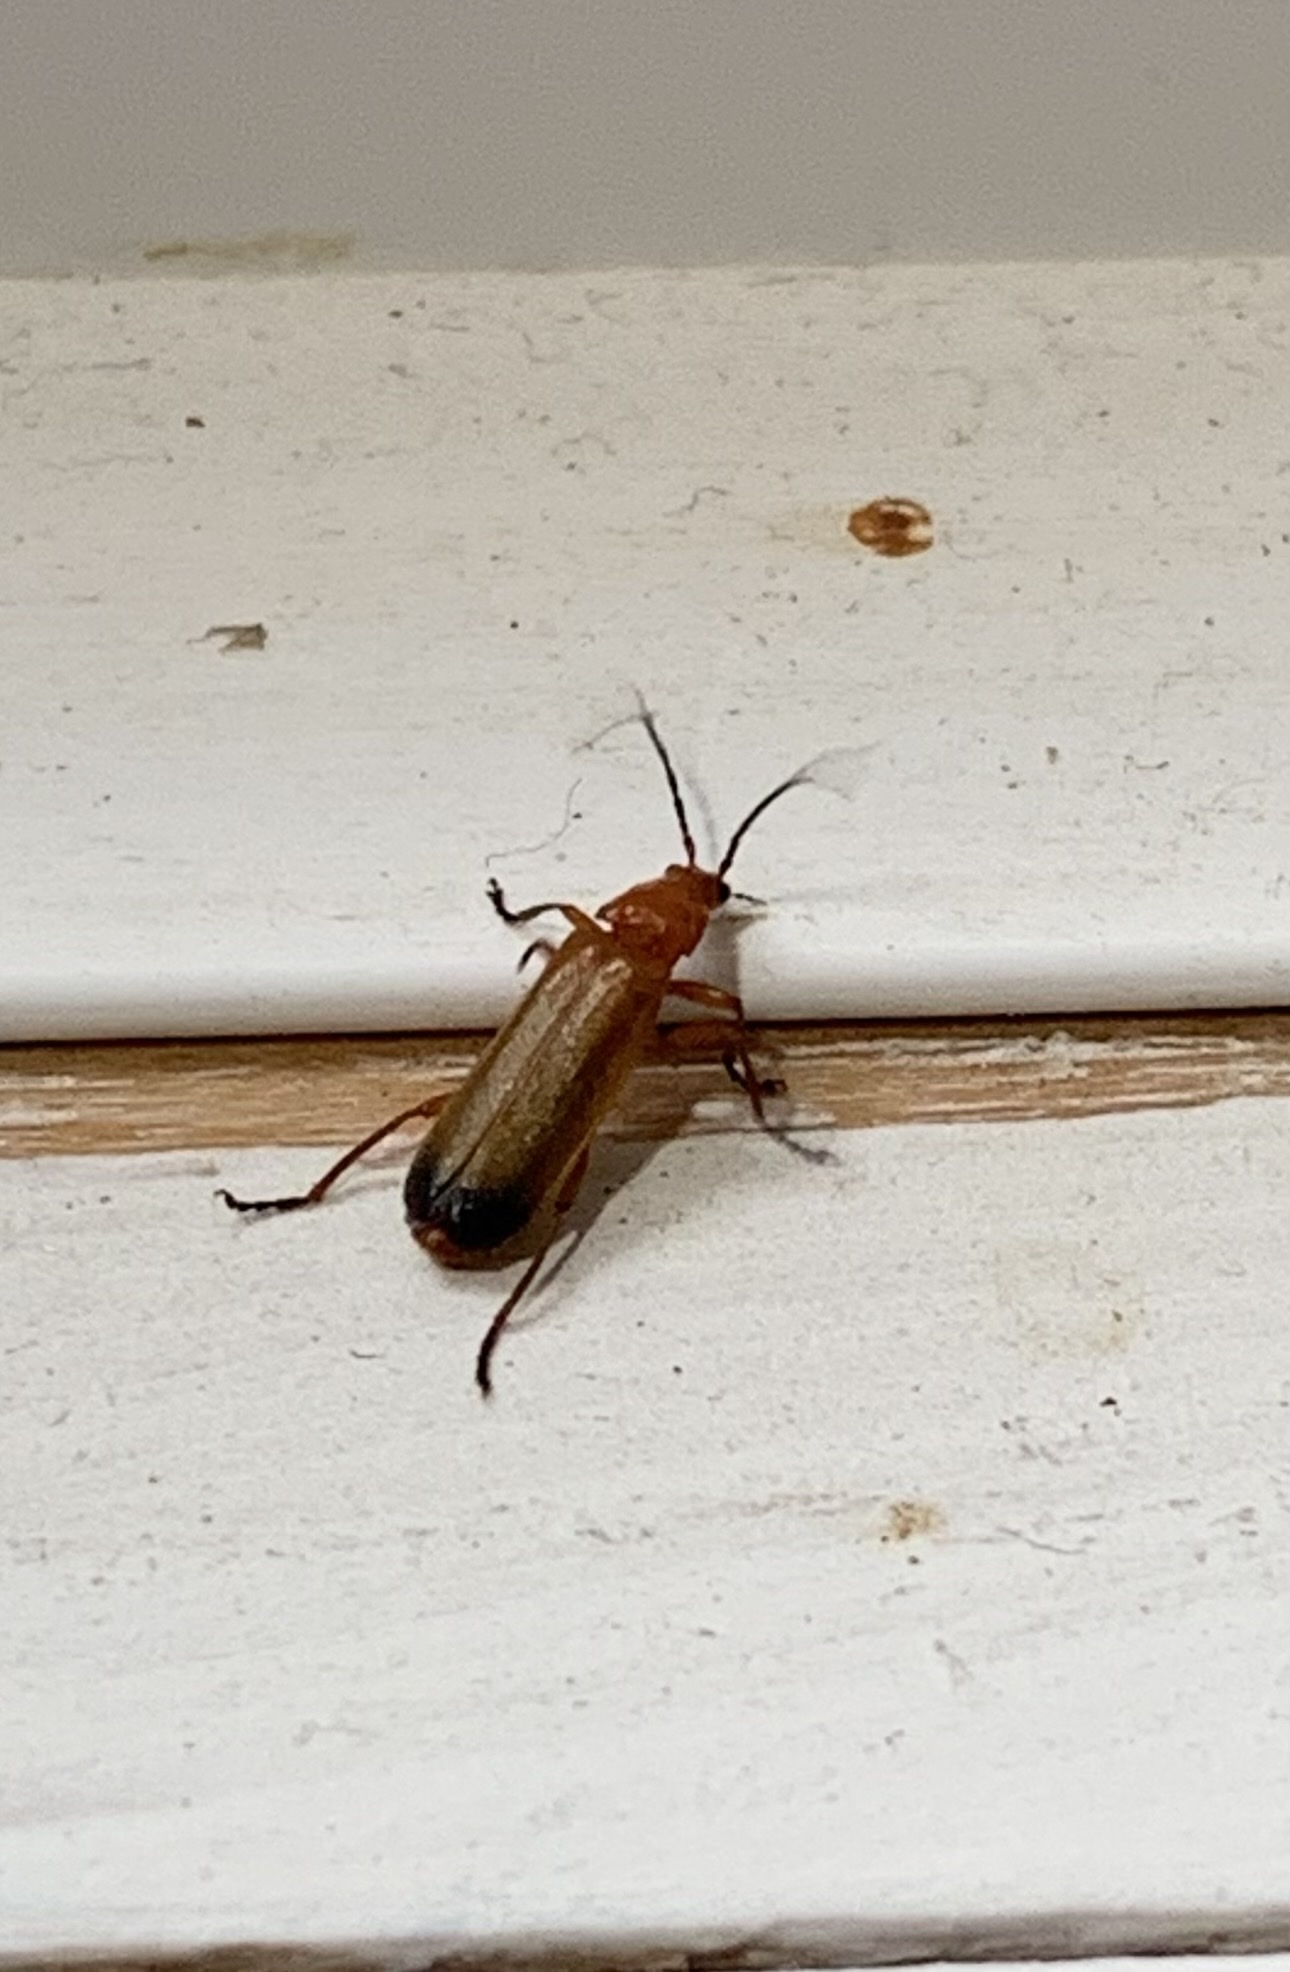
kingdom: Animalia
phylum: Arthropoda
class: Insecta
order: Coleoptera
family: Cantharidae
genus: Rhagonycha
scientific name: Rhagonycha fulva
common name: Common red soldier beetle
